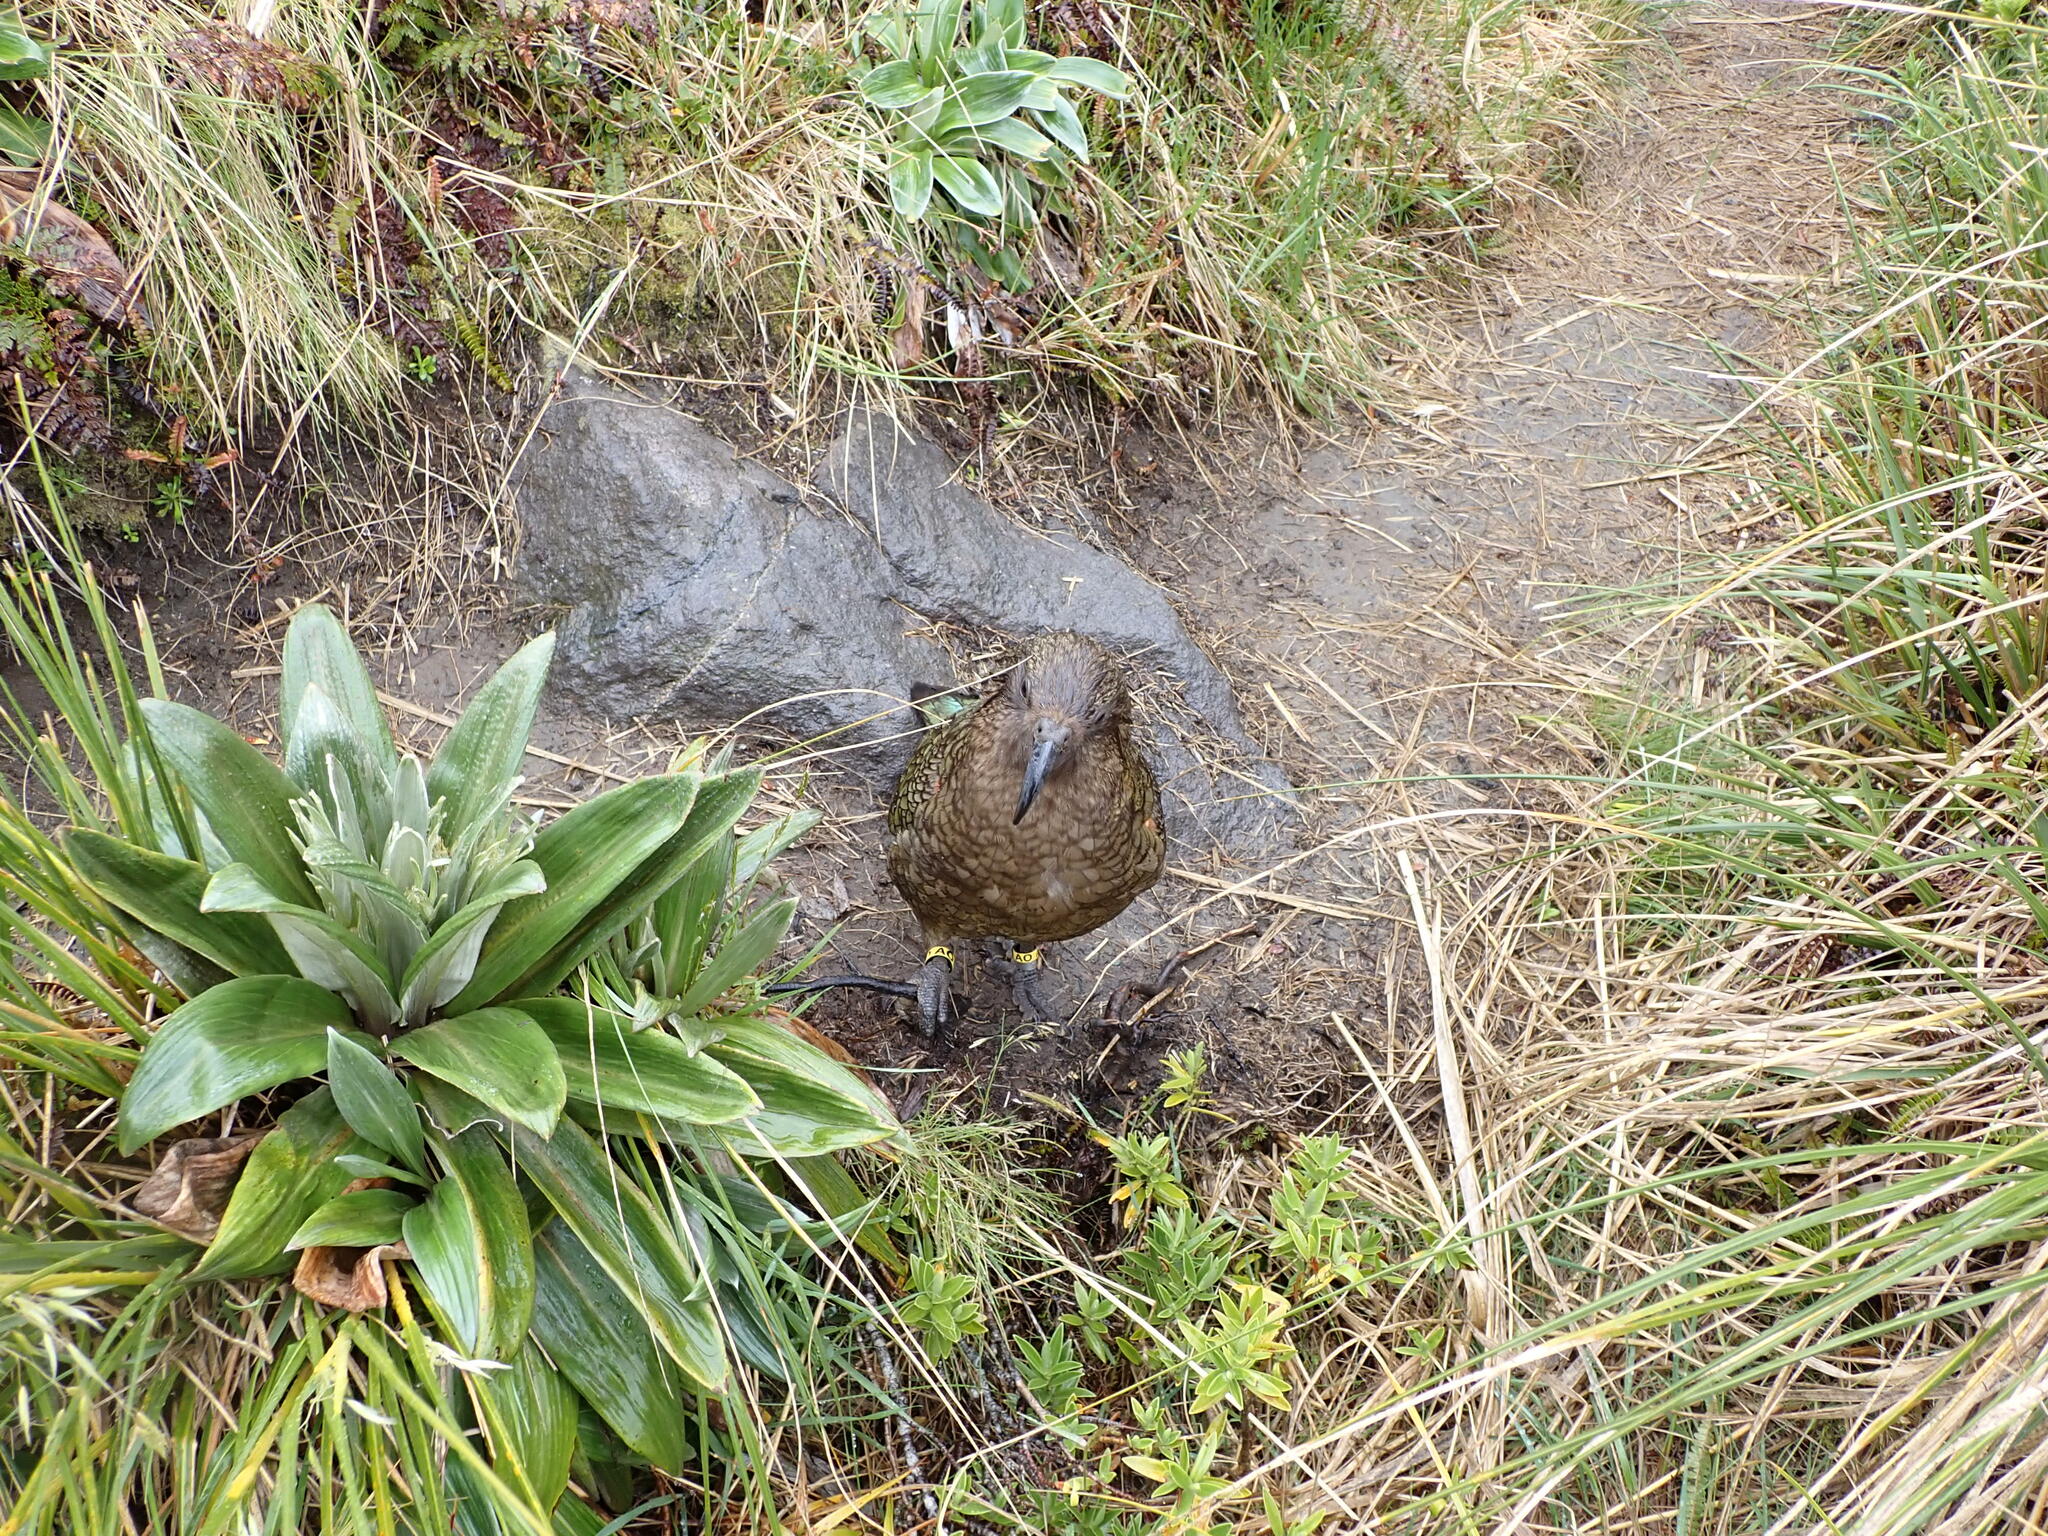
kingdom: Animalia
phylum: Chordata
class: Aves
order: Psittaciformes
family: Psittacidae
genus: Nestor
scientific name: Nestor notabilis
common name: Kea
